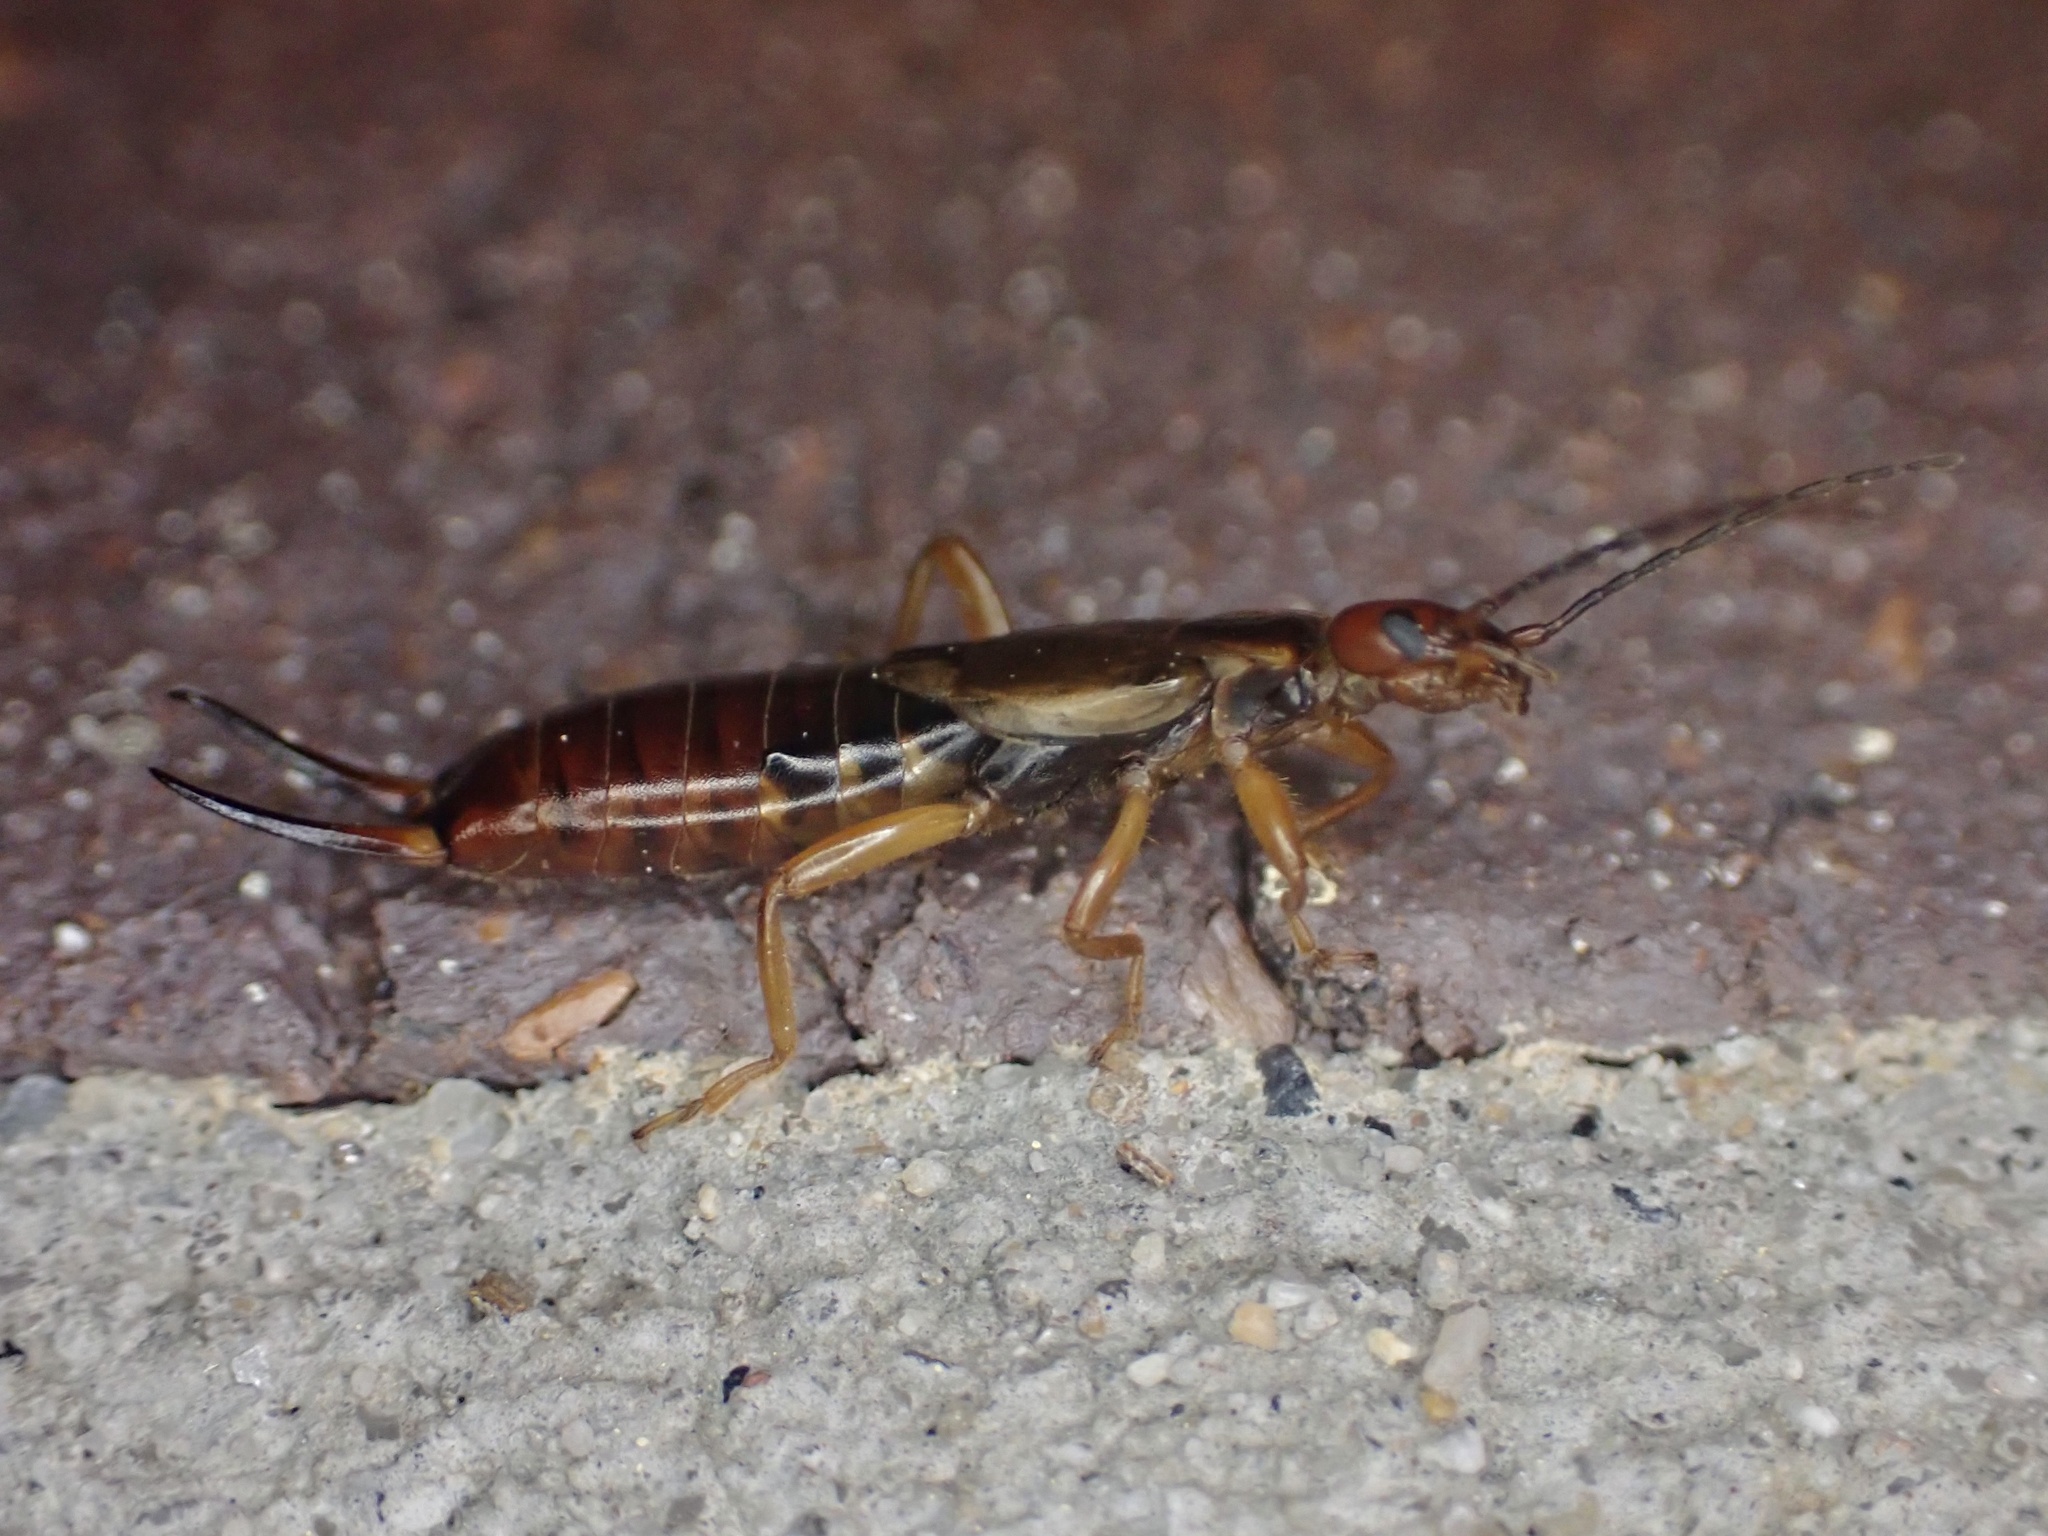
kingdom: Animalia
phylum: Arthropoda
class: Insecta
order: Dermaptera
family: Forficulidae
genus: Forficula
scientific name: Forficula
